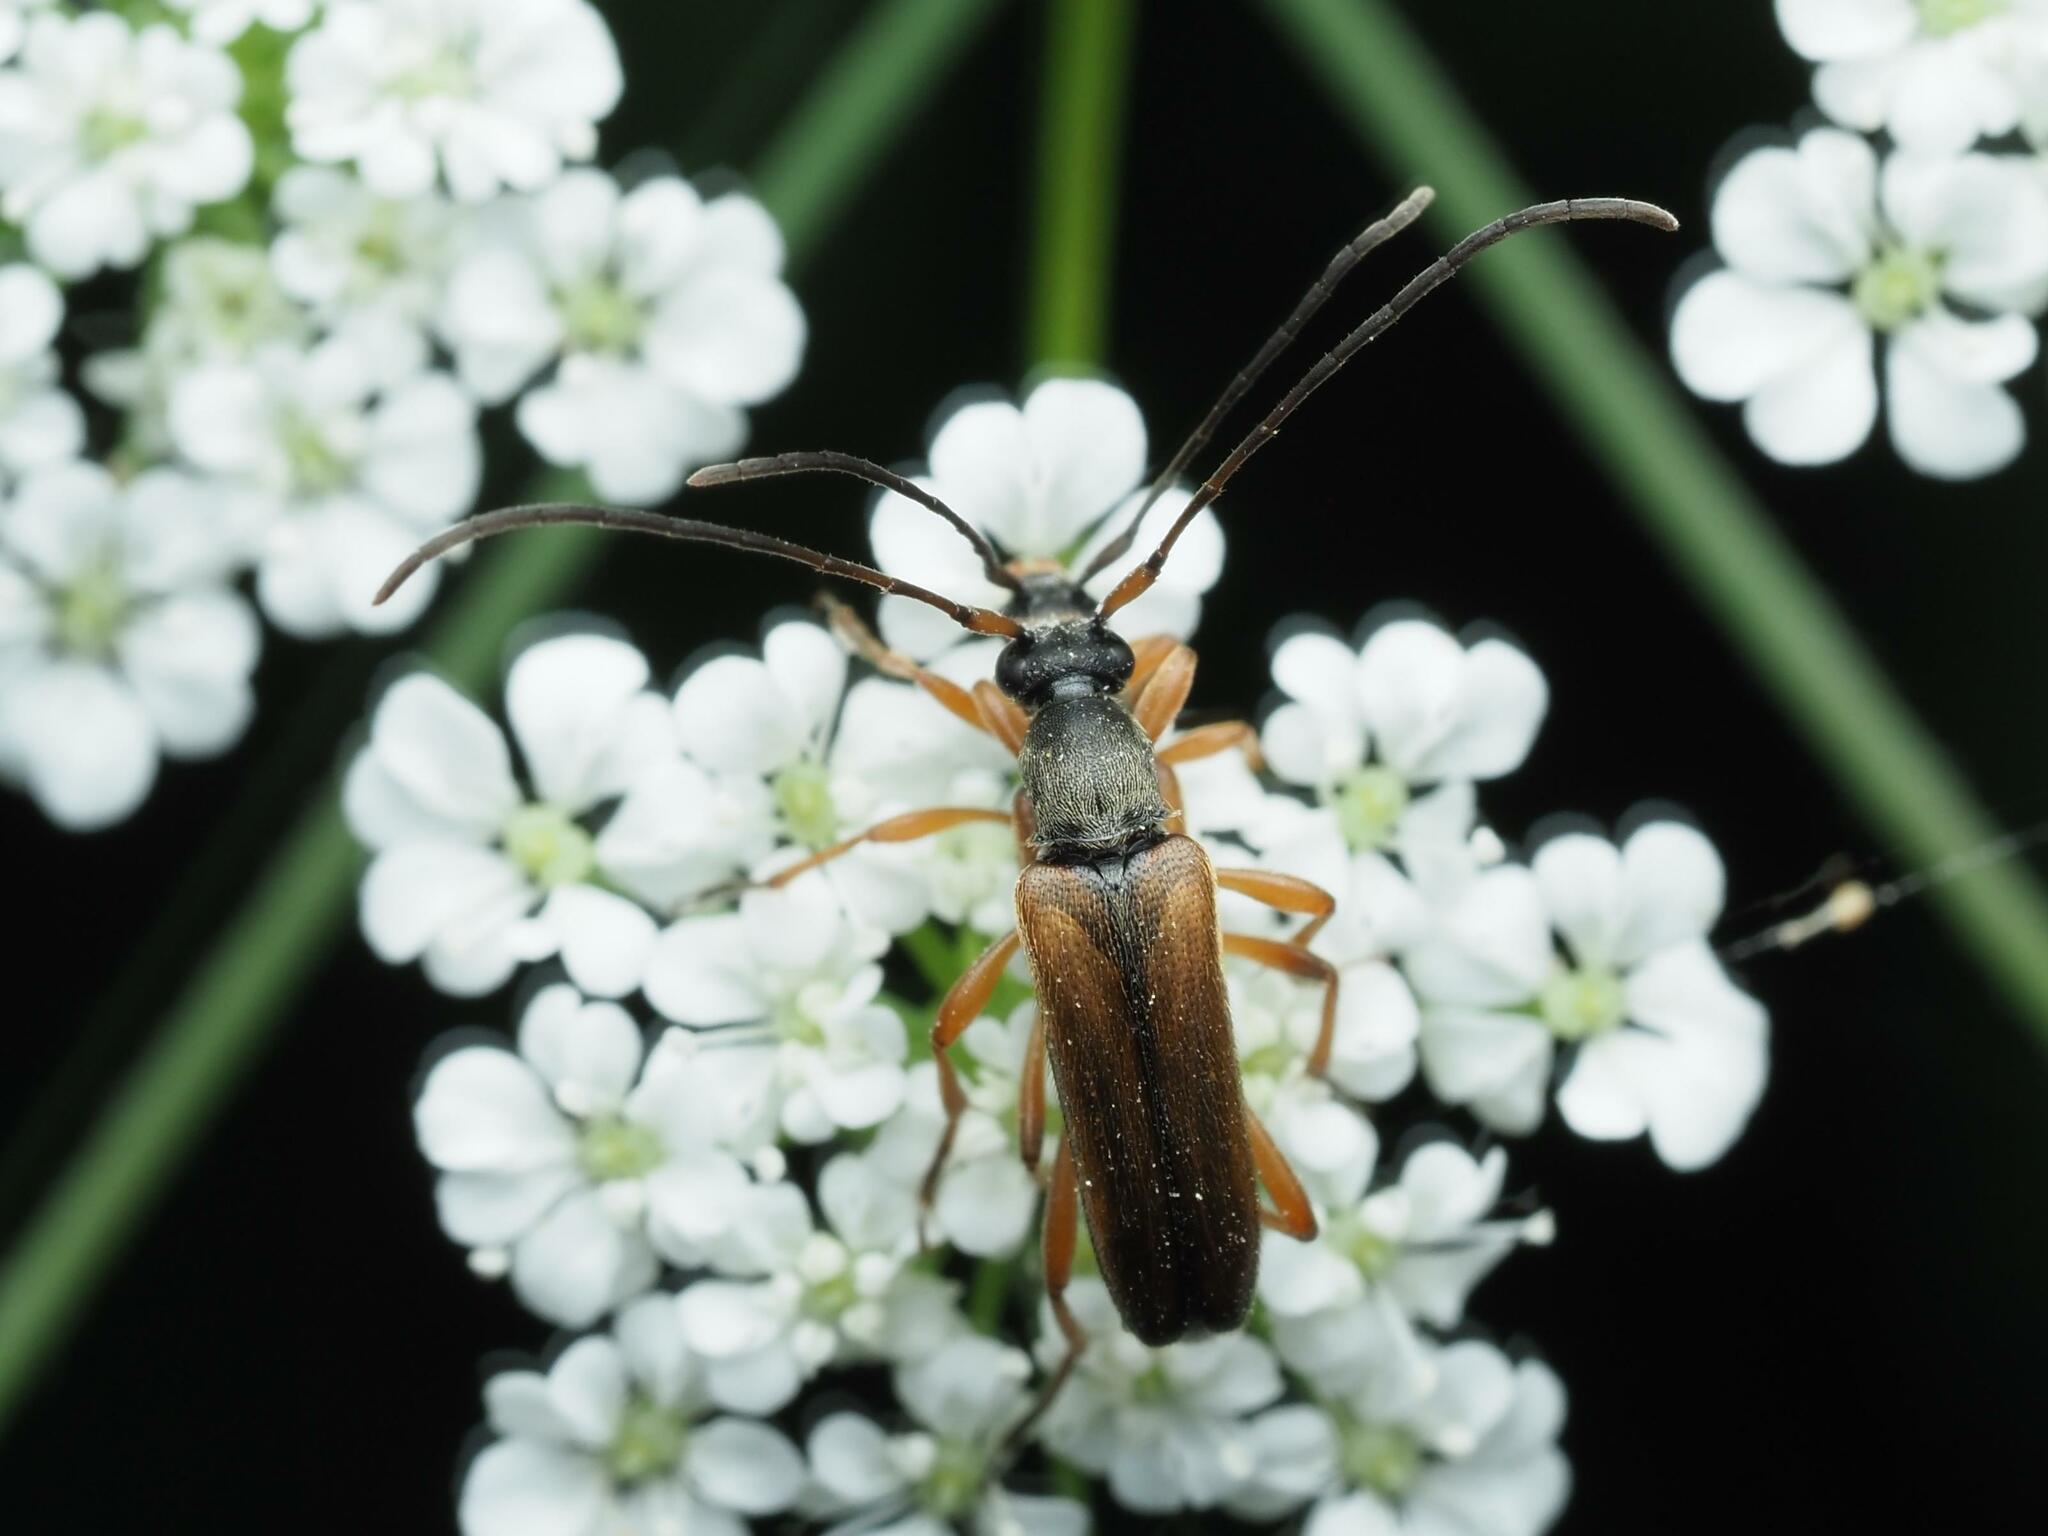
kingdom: Animalia
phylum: Arthropoda
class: Insecta
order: Coleoptera
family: Cerambycidae
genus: Alosterna
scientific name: Alosterna tabacicolor
